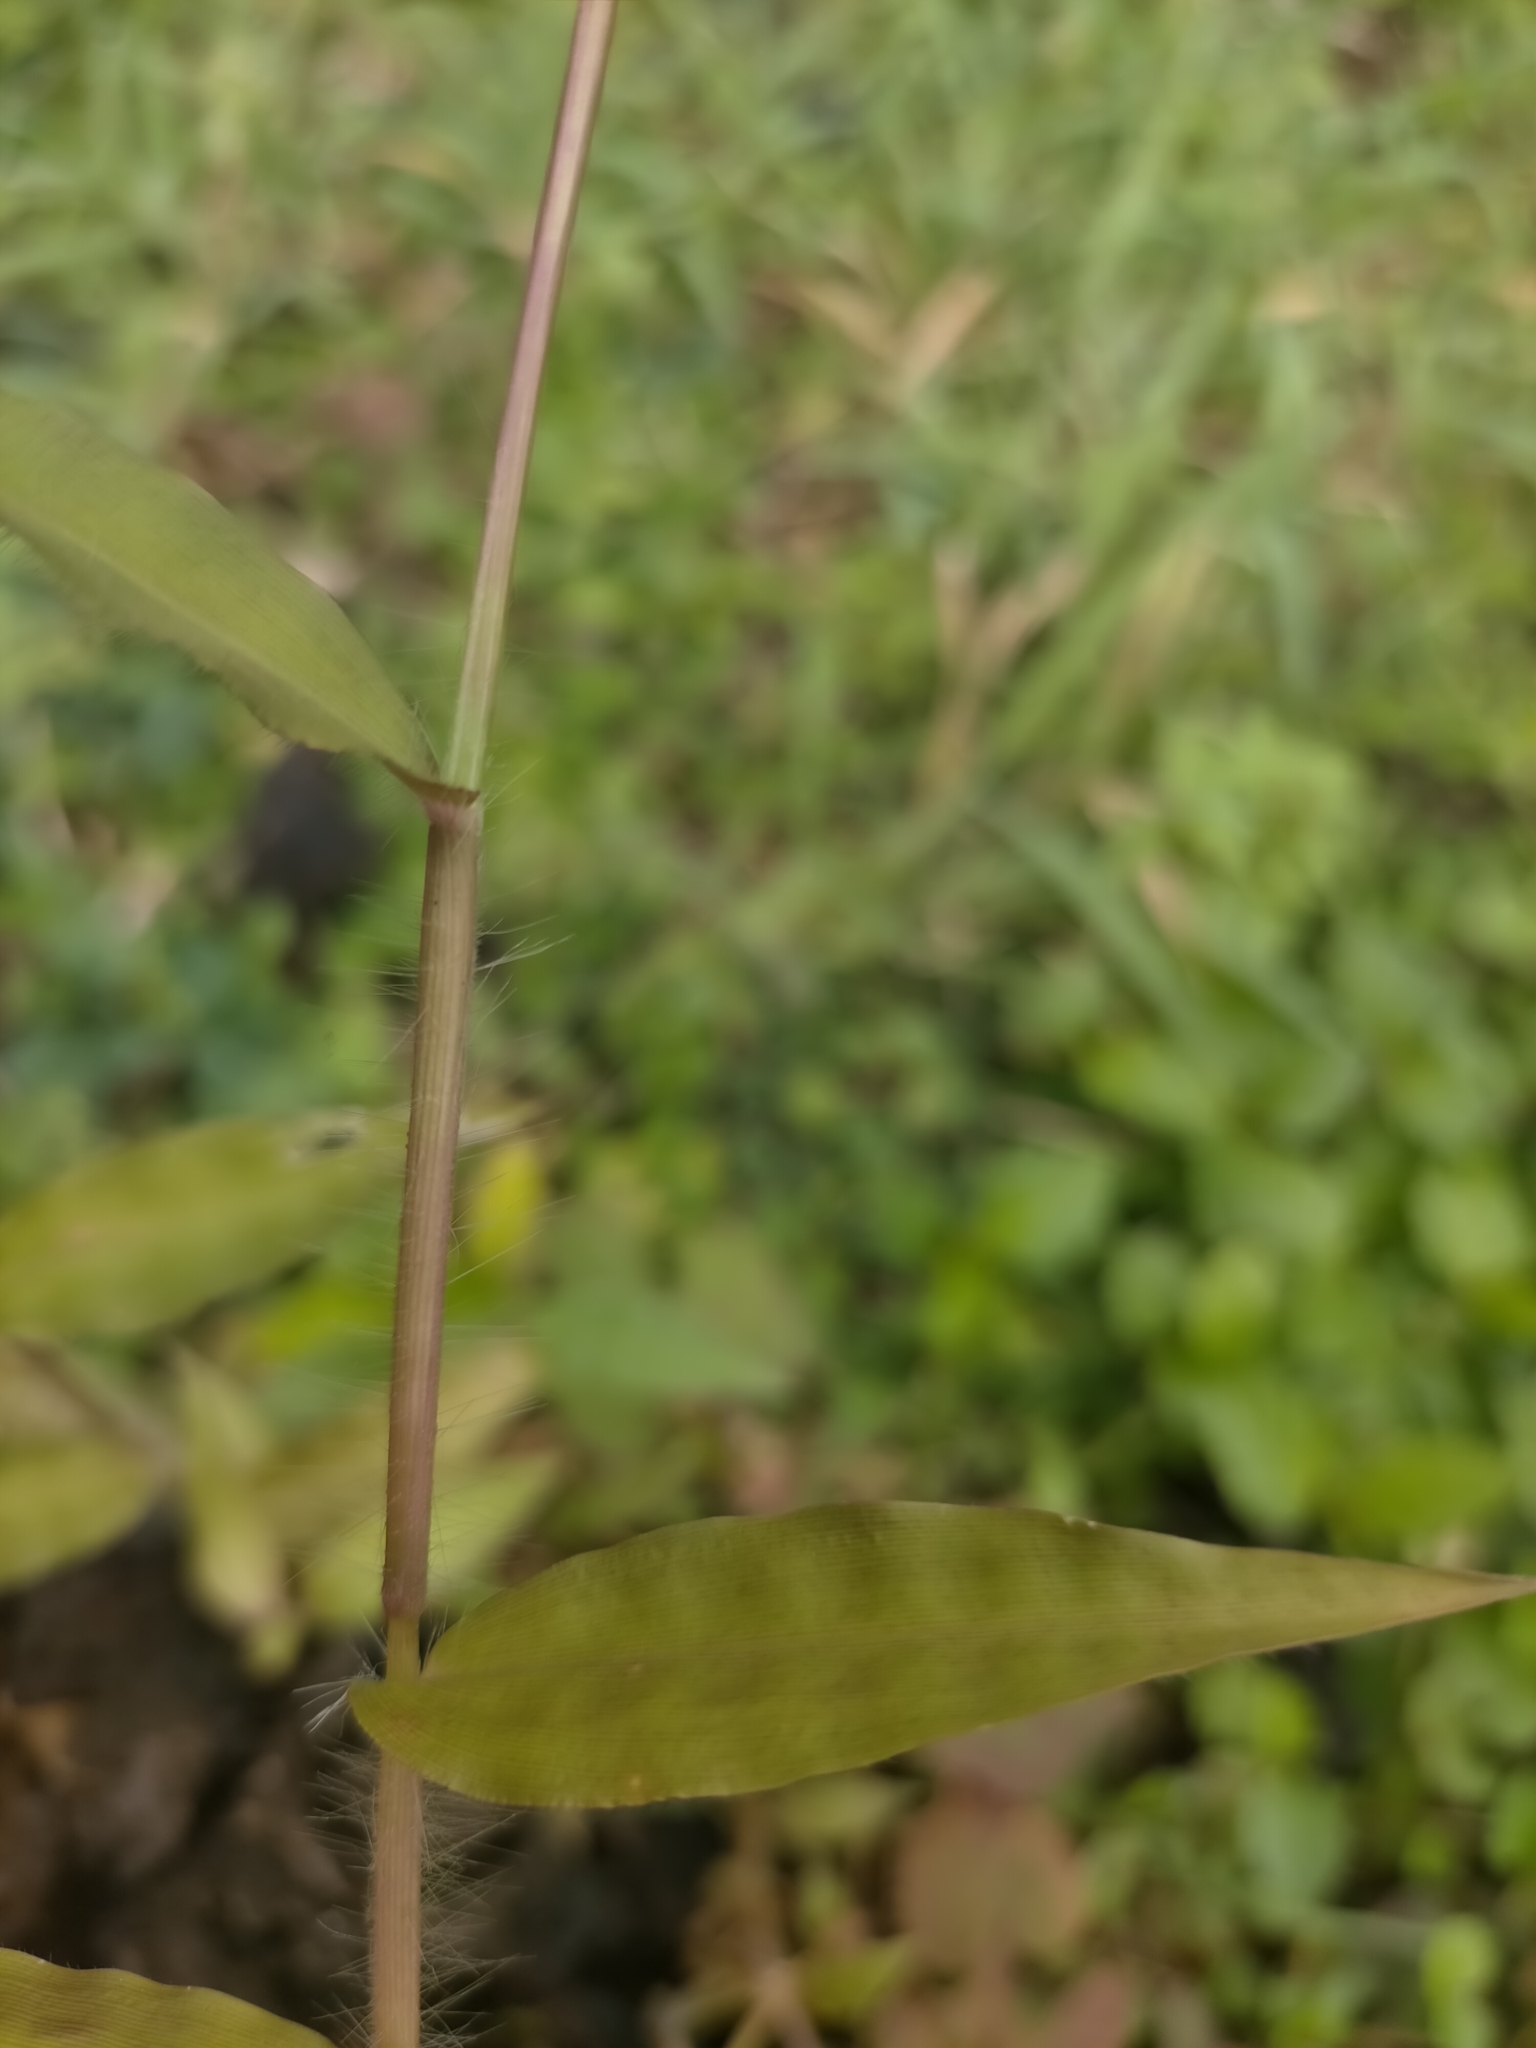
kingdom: Plantae
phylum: Tracheophyta
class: Liliopsida
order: Poales
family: Poaceae
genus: Oplismenus
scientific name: Oplismenus burmanni
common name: Burmann's basketgrass
